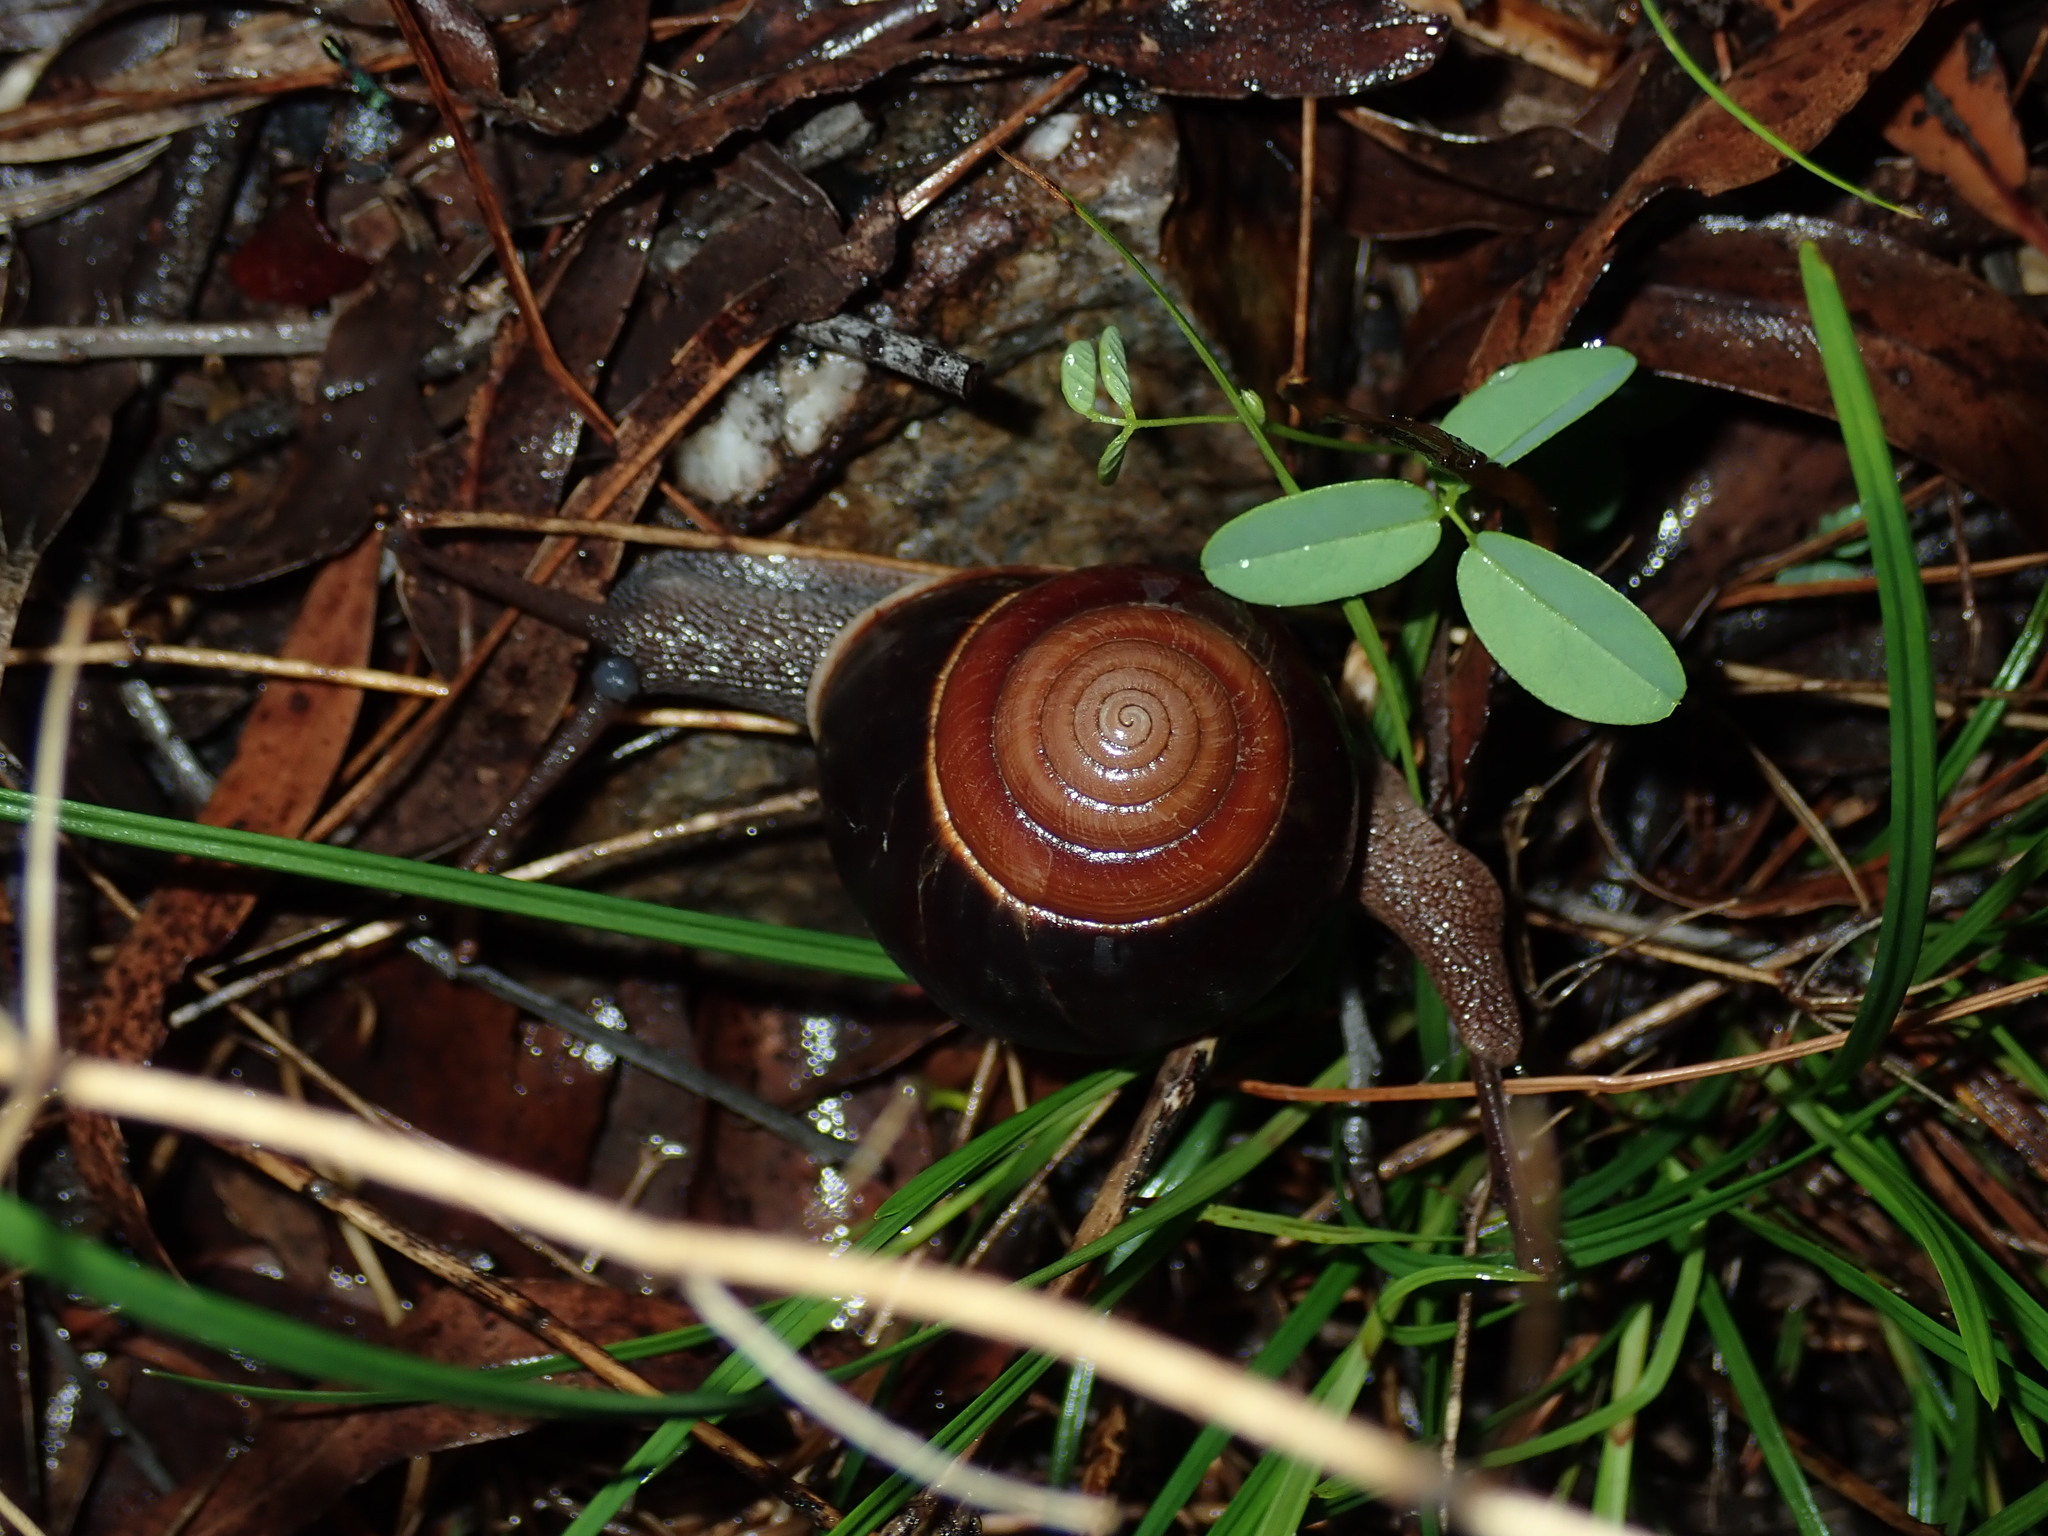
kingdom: Animalia
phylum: Mollusca
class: Gastropoda
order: Stylommatophora
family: Camaenidae
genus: Figuladra
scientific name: Figuladra incei
